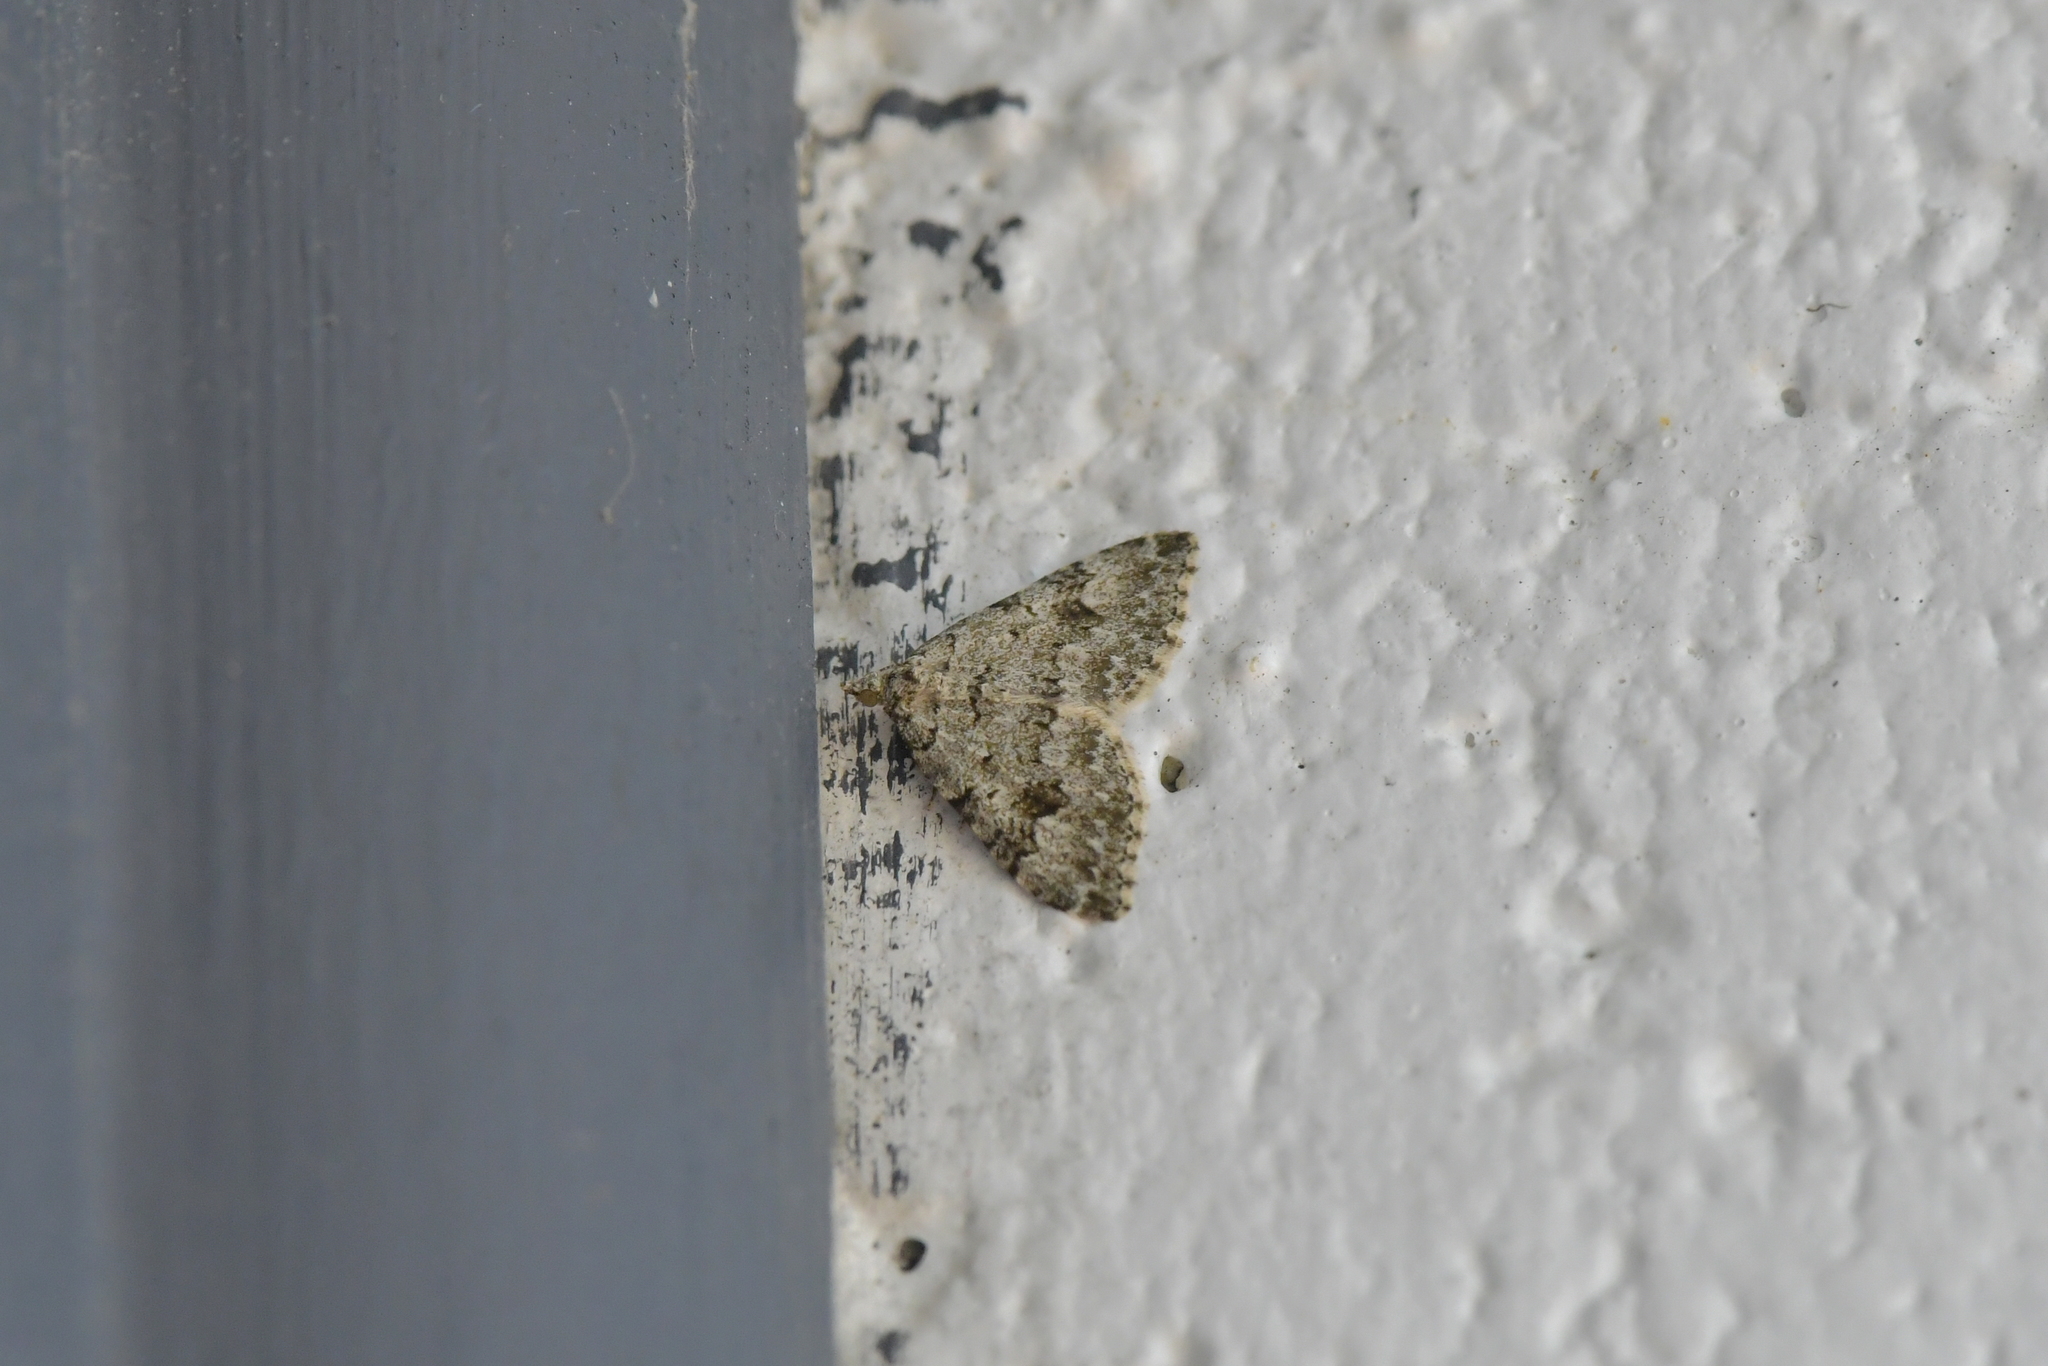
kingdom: Animalia
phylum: Arthropoda
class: Insecta
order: Lepidoptera
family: Geometridae
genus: Helastia
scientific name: Helastia cinerearia
